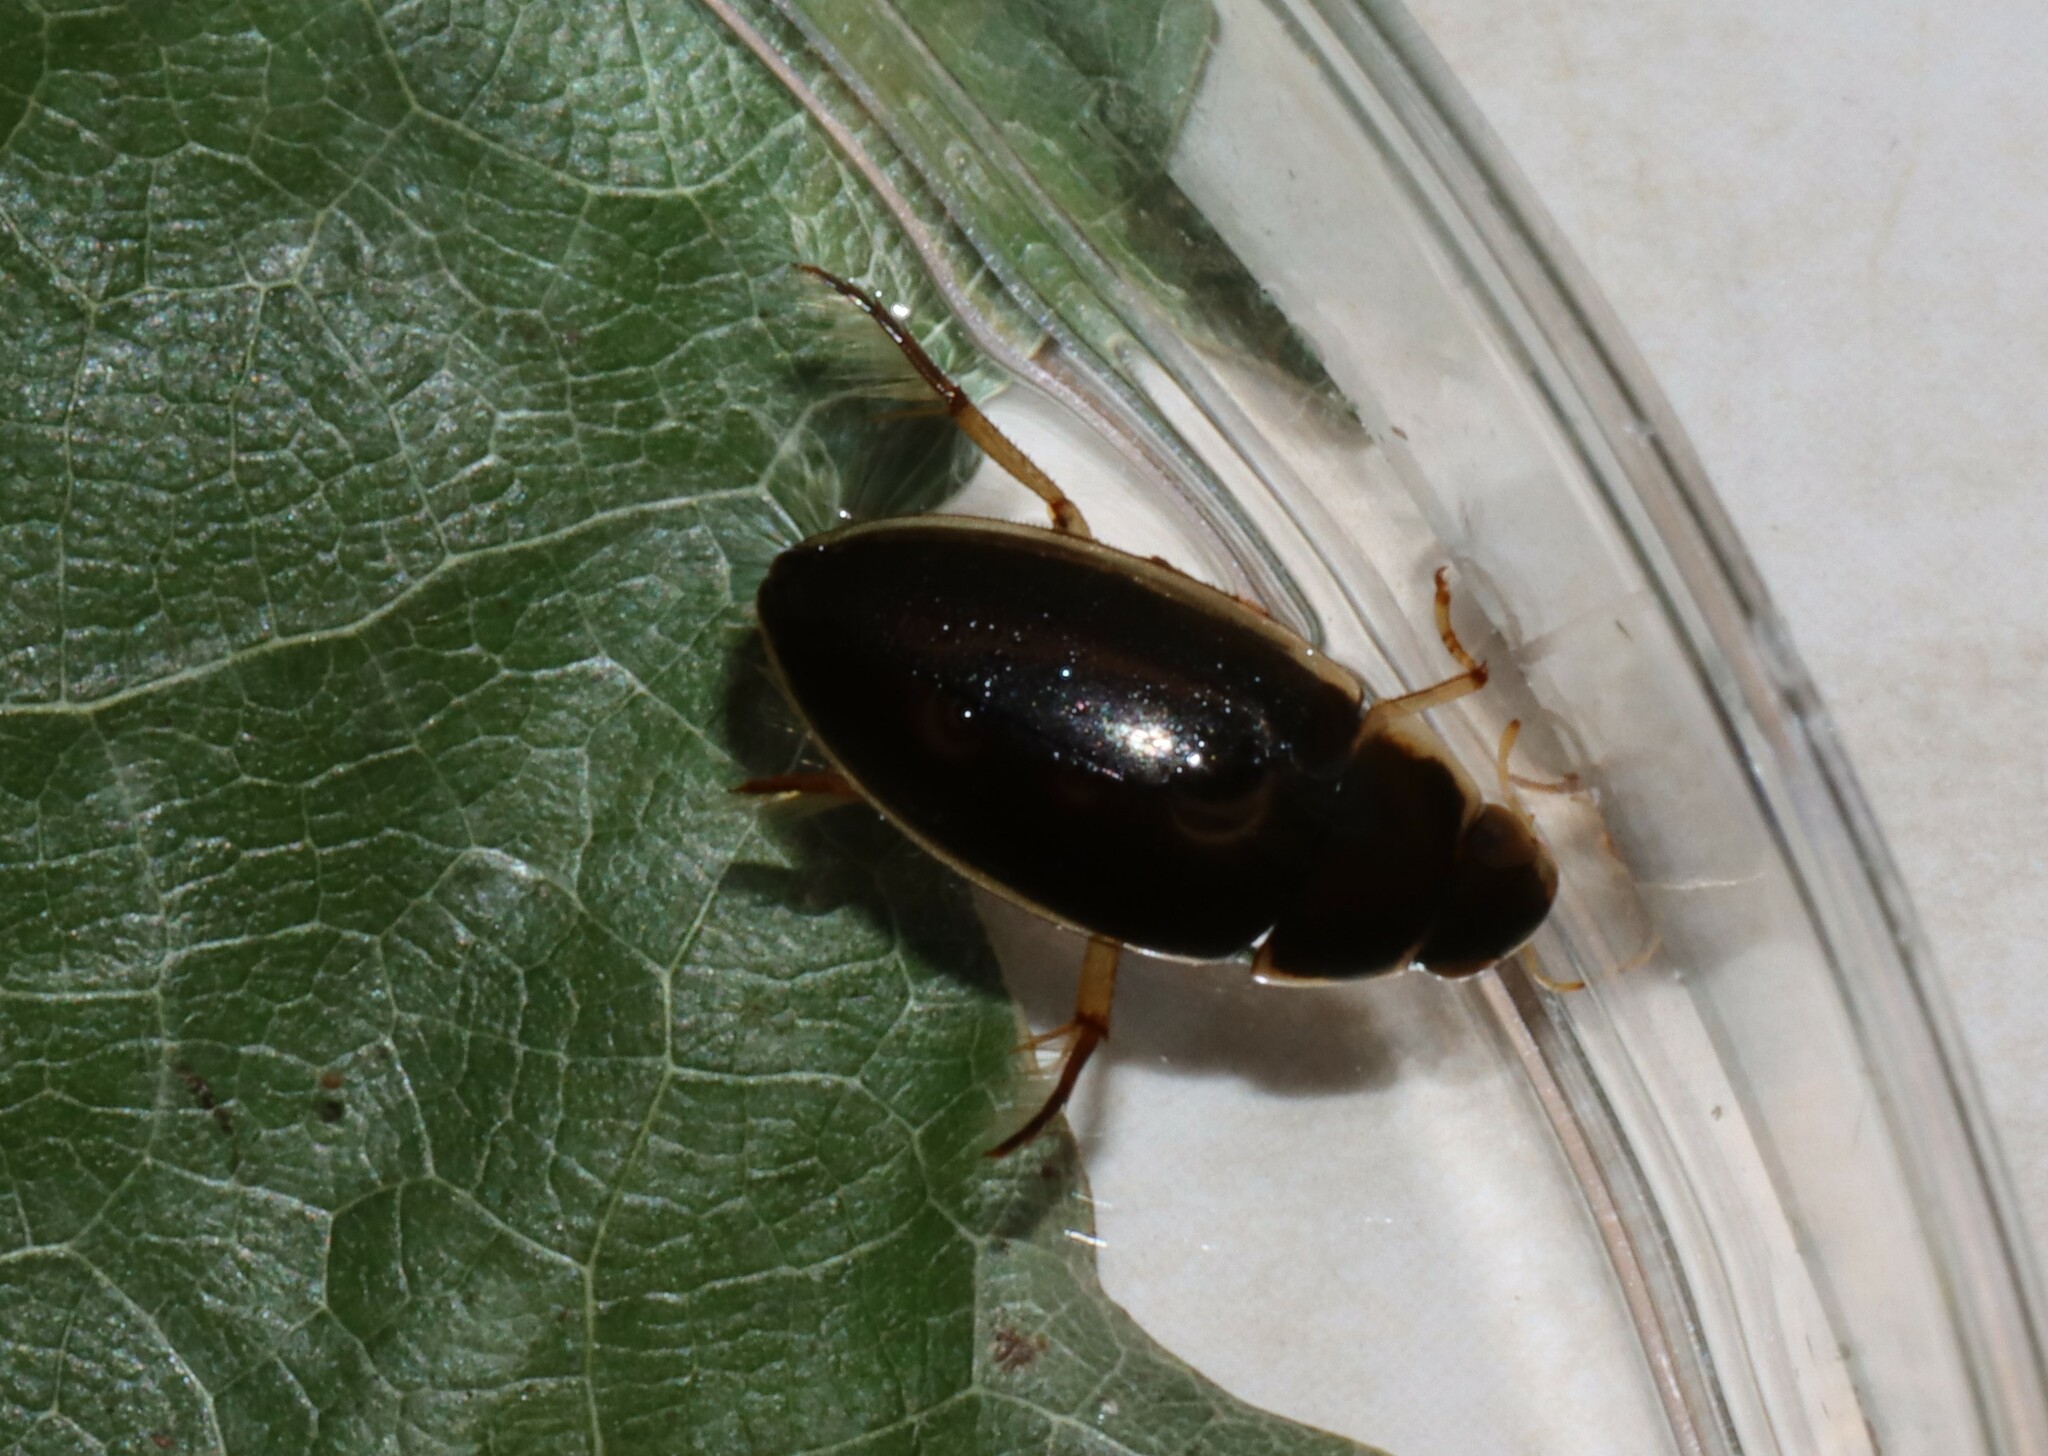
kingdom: Animalia
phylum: Arthropoda
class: Insecta
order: Coleoptera
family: Hydrophilidae
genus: Tropisternus
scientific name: Tropisternus lateralis
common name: Lateral-banded water scavenger beetle
